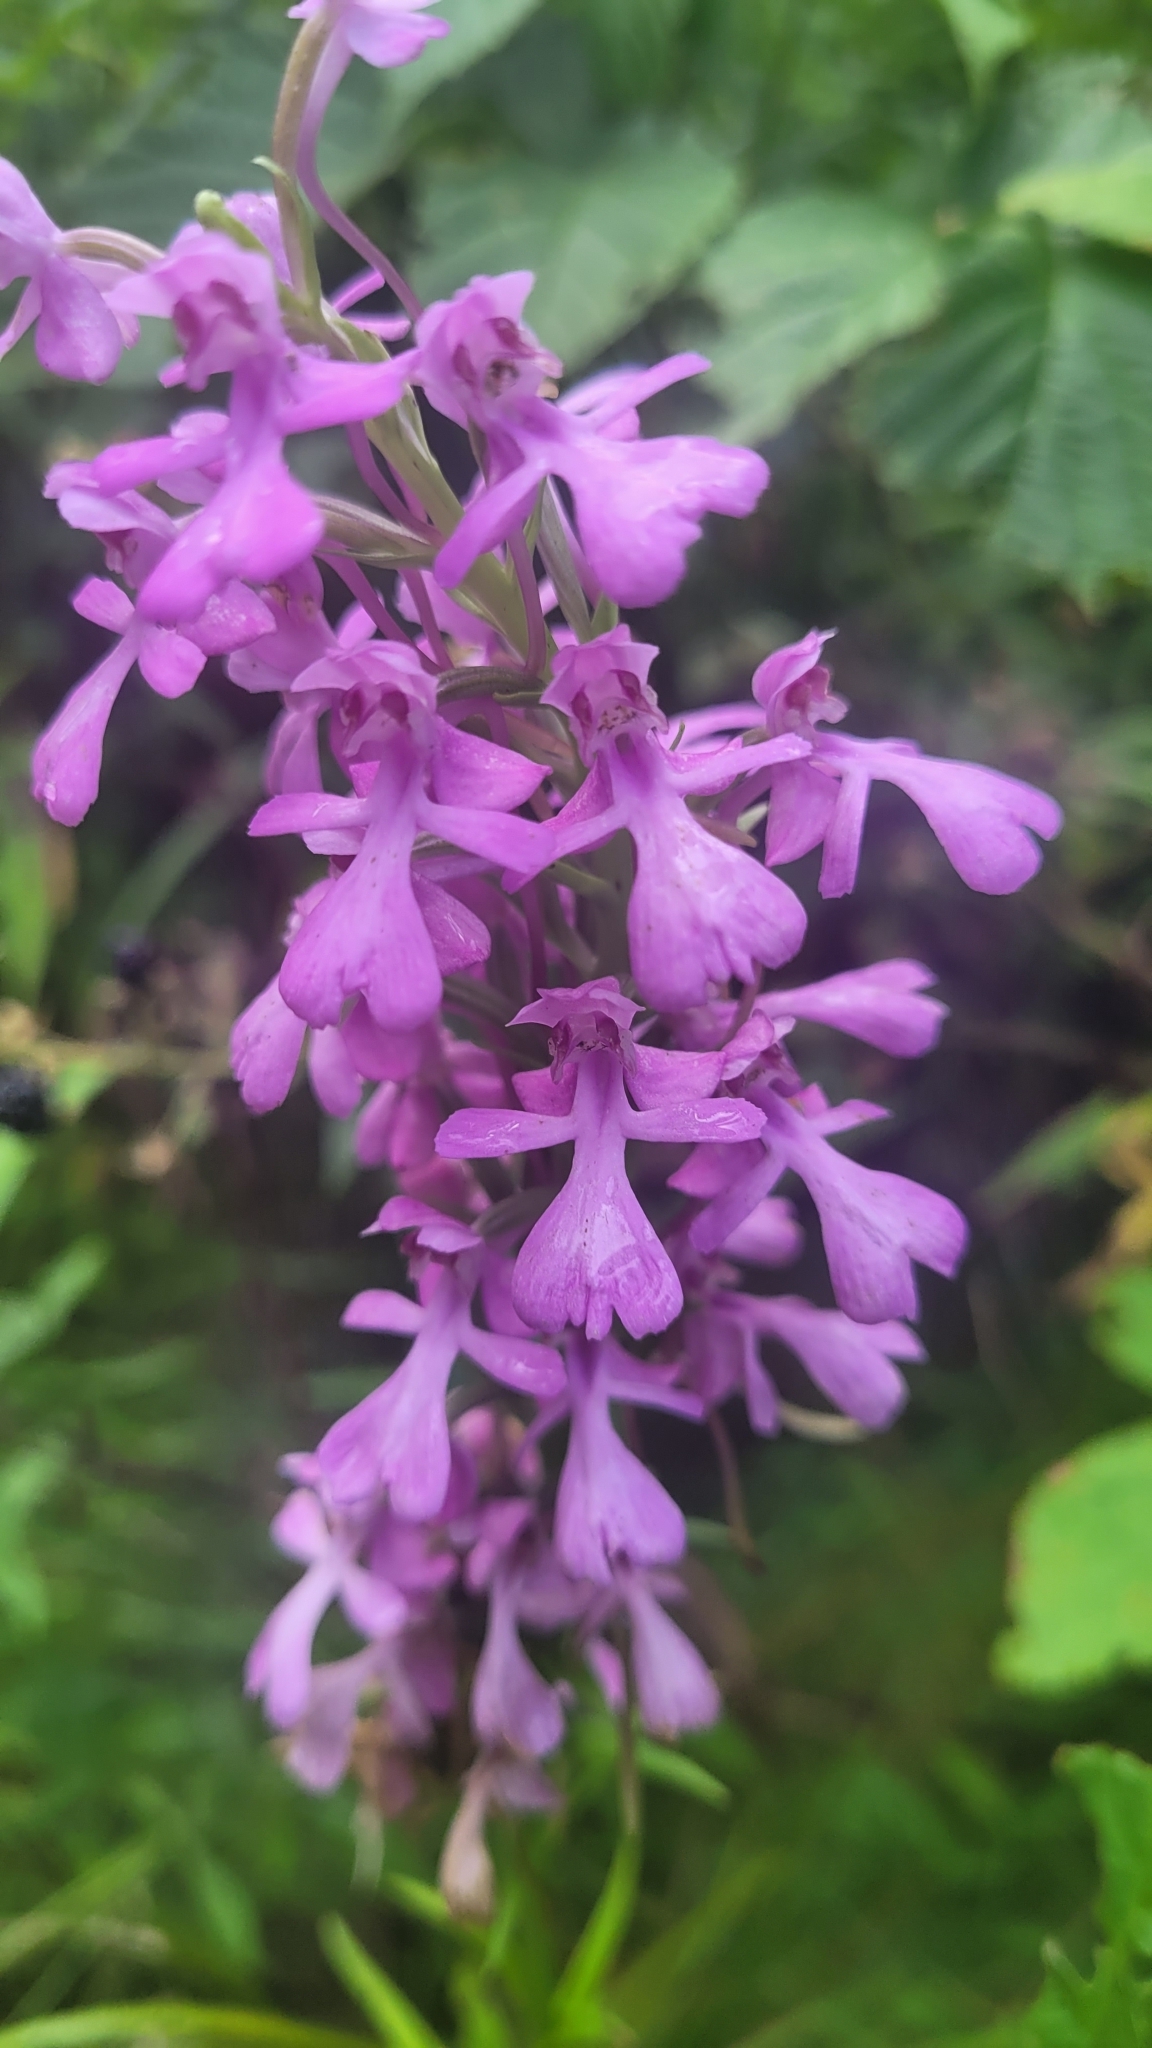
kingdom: Plantae
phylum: Tracheophyta
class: Liliopsida
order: Asparagales
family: Orchidaceae
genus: Platanthera
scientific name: Platanthera peramoena
